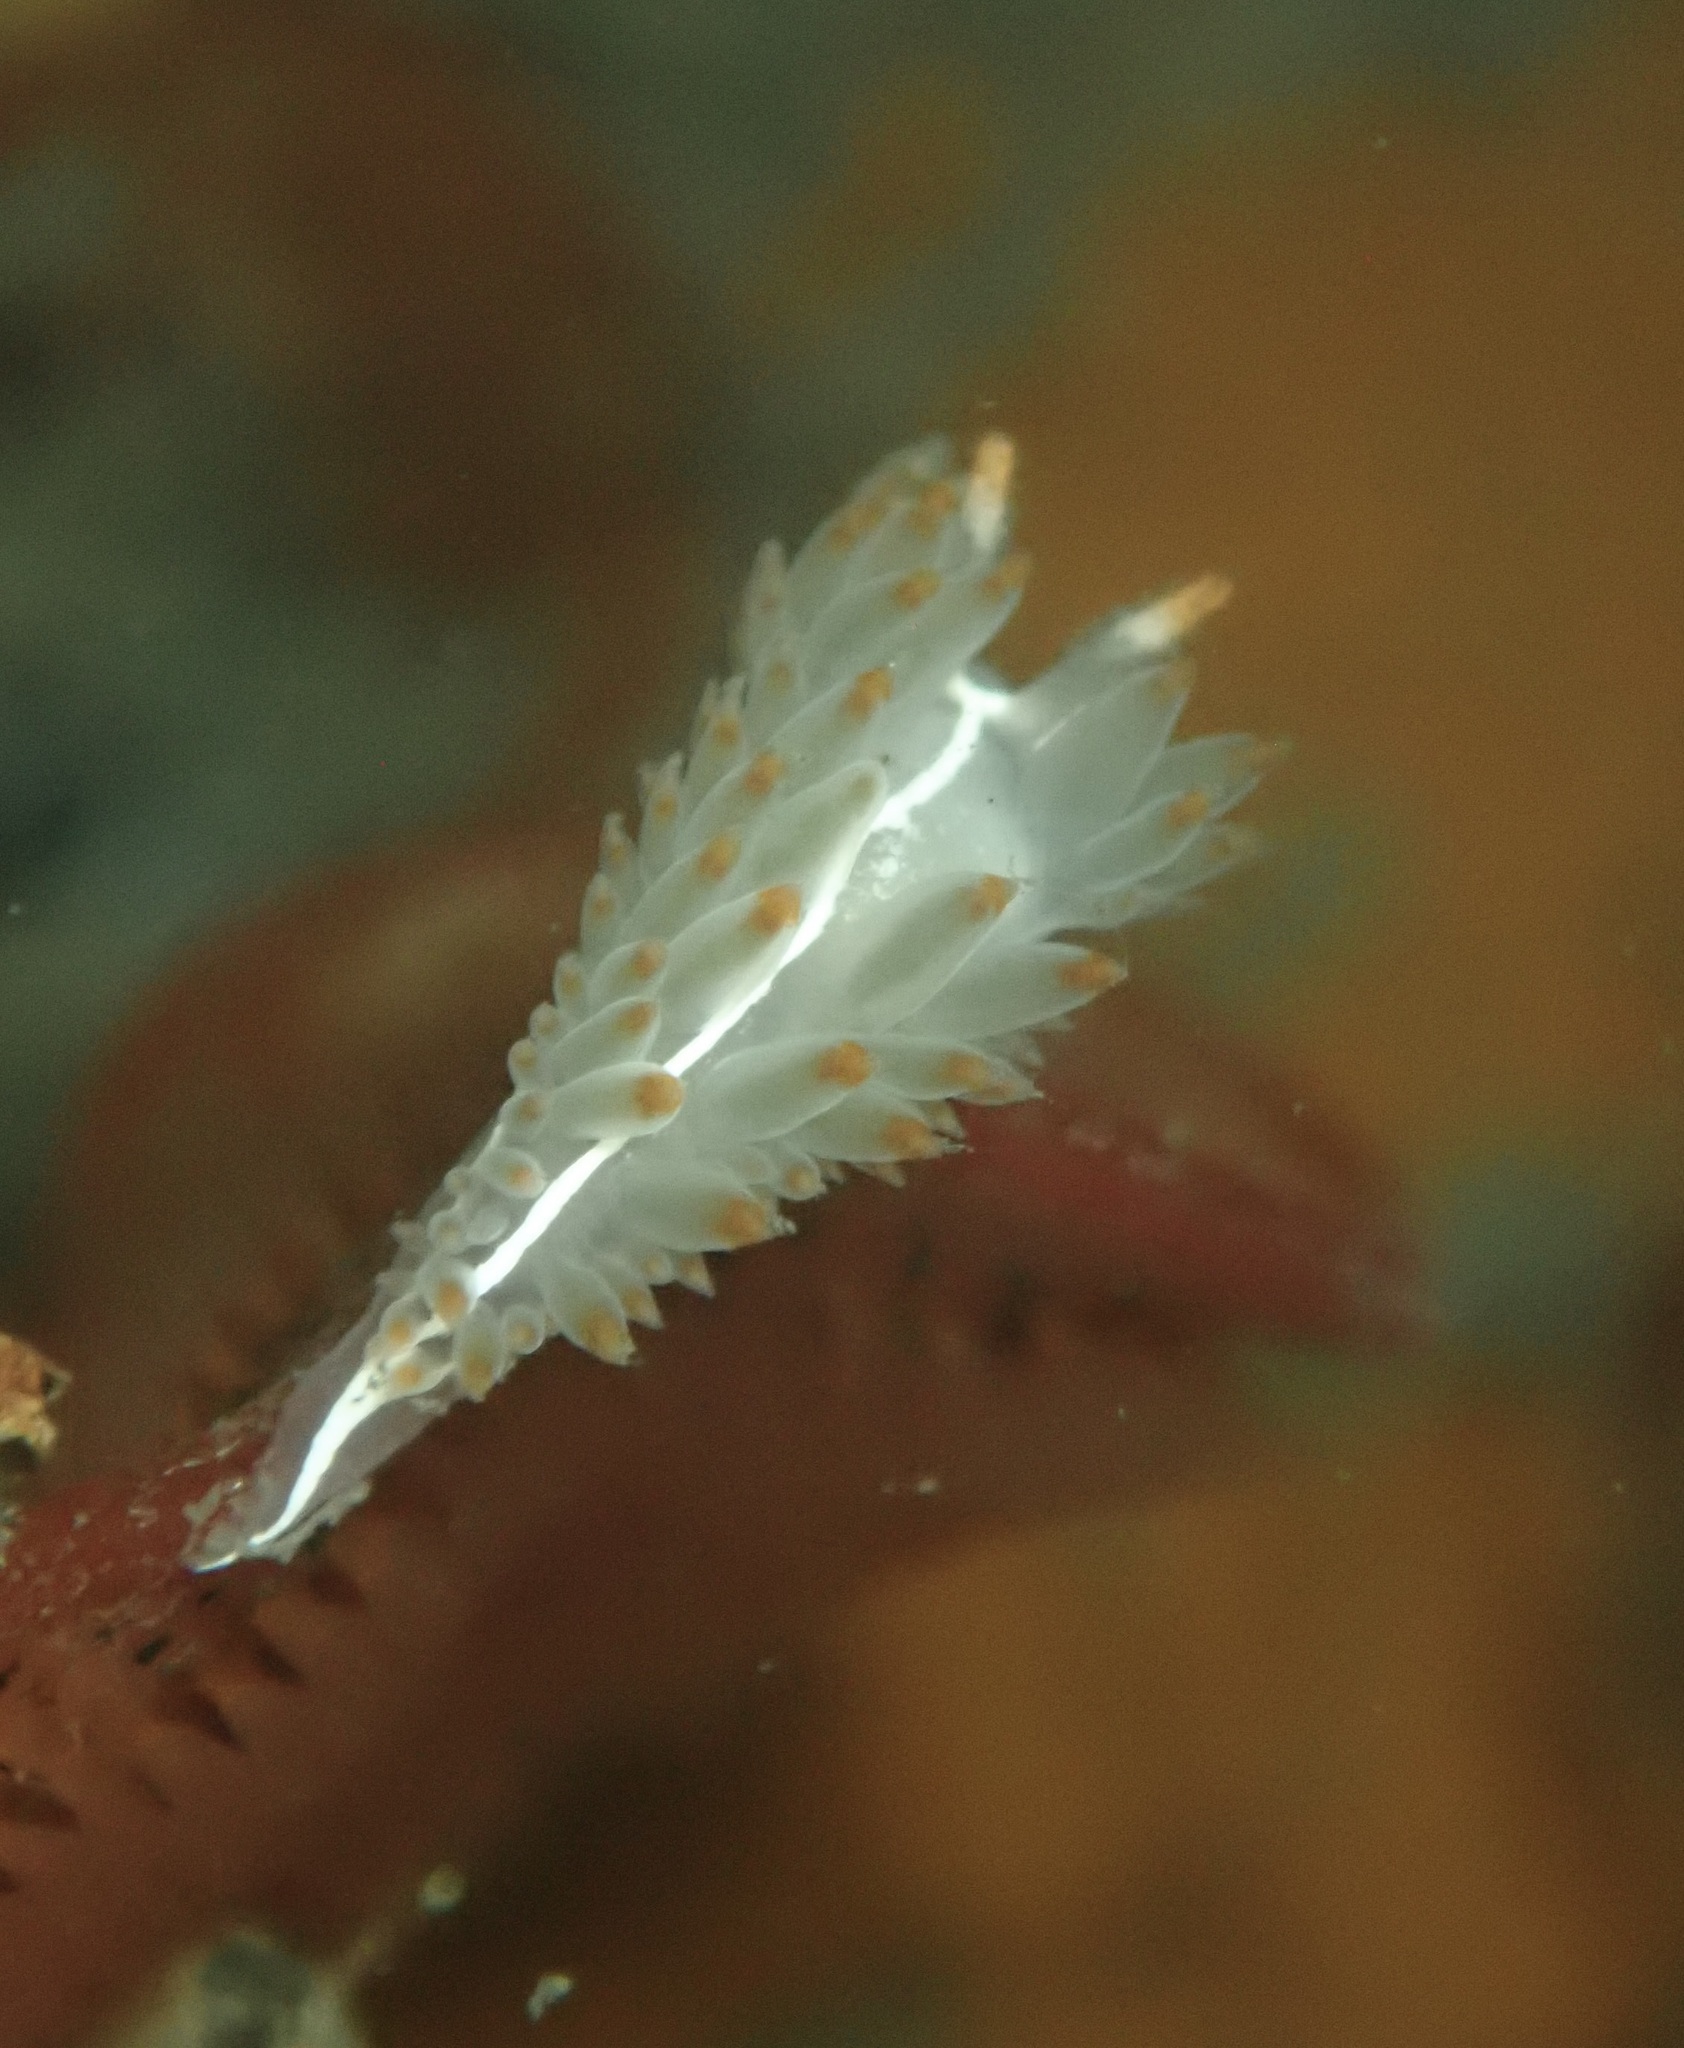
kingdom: Animalia
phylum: Mollusca
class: Gastropoda
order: Nudibranchia
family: Coryphellidae
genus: Coryphella
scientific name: Coryphella trilineata
